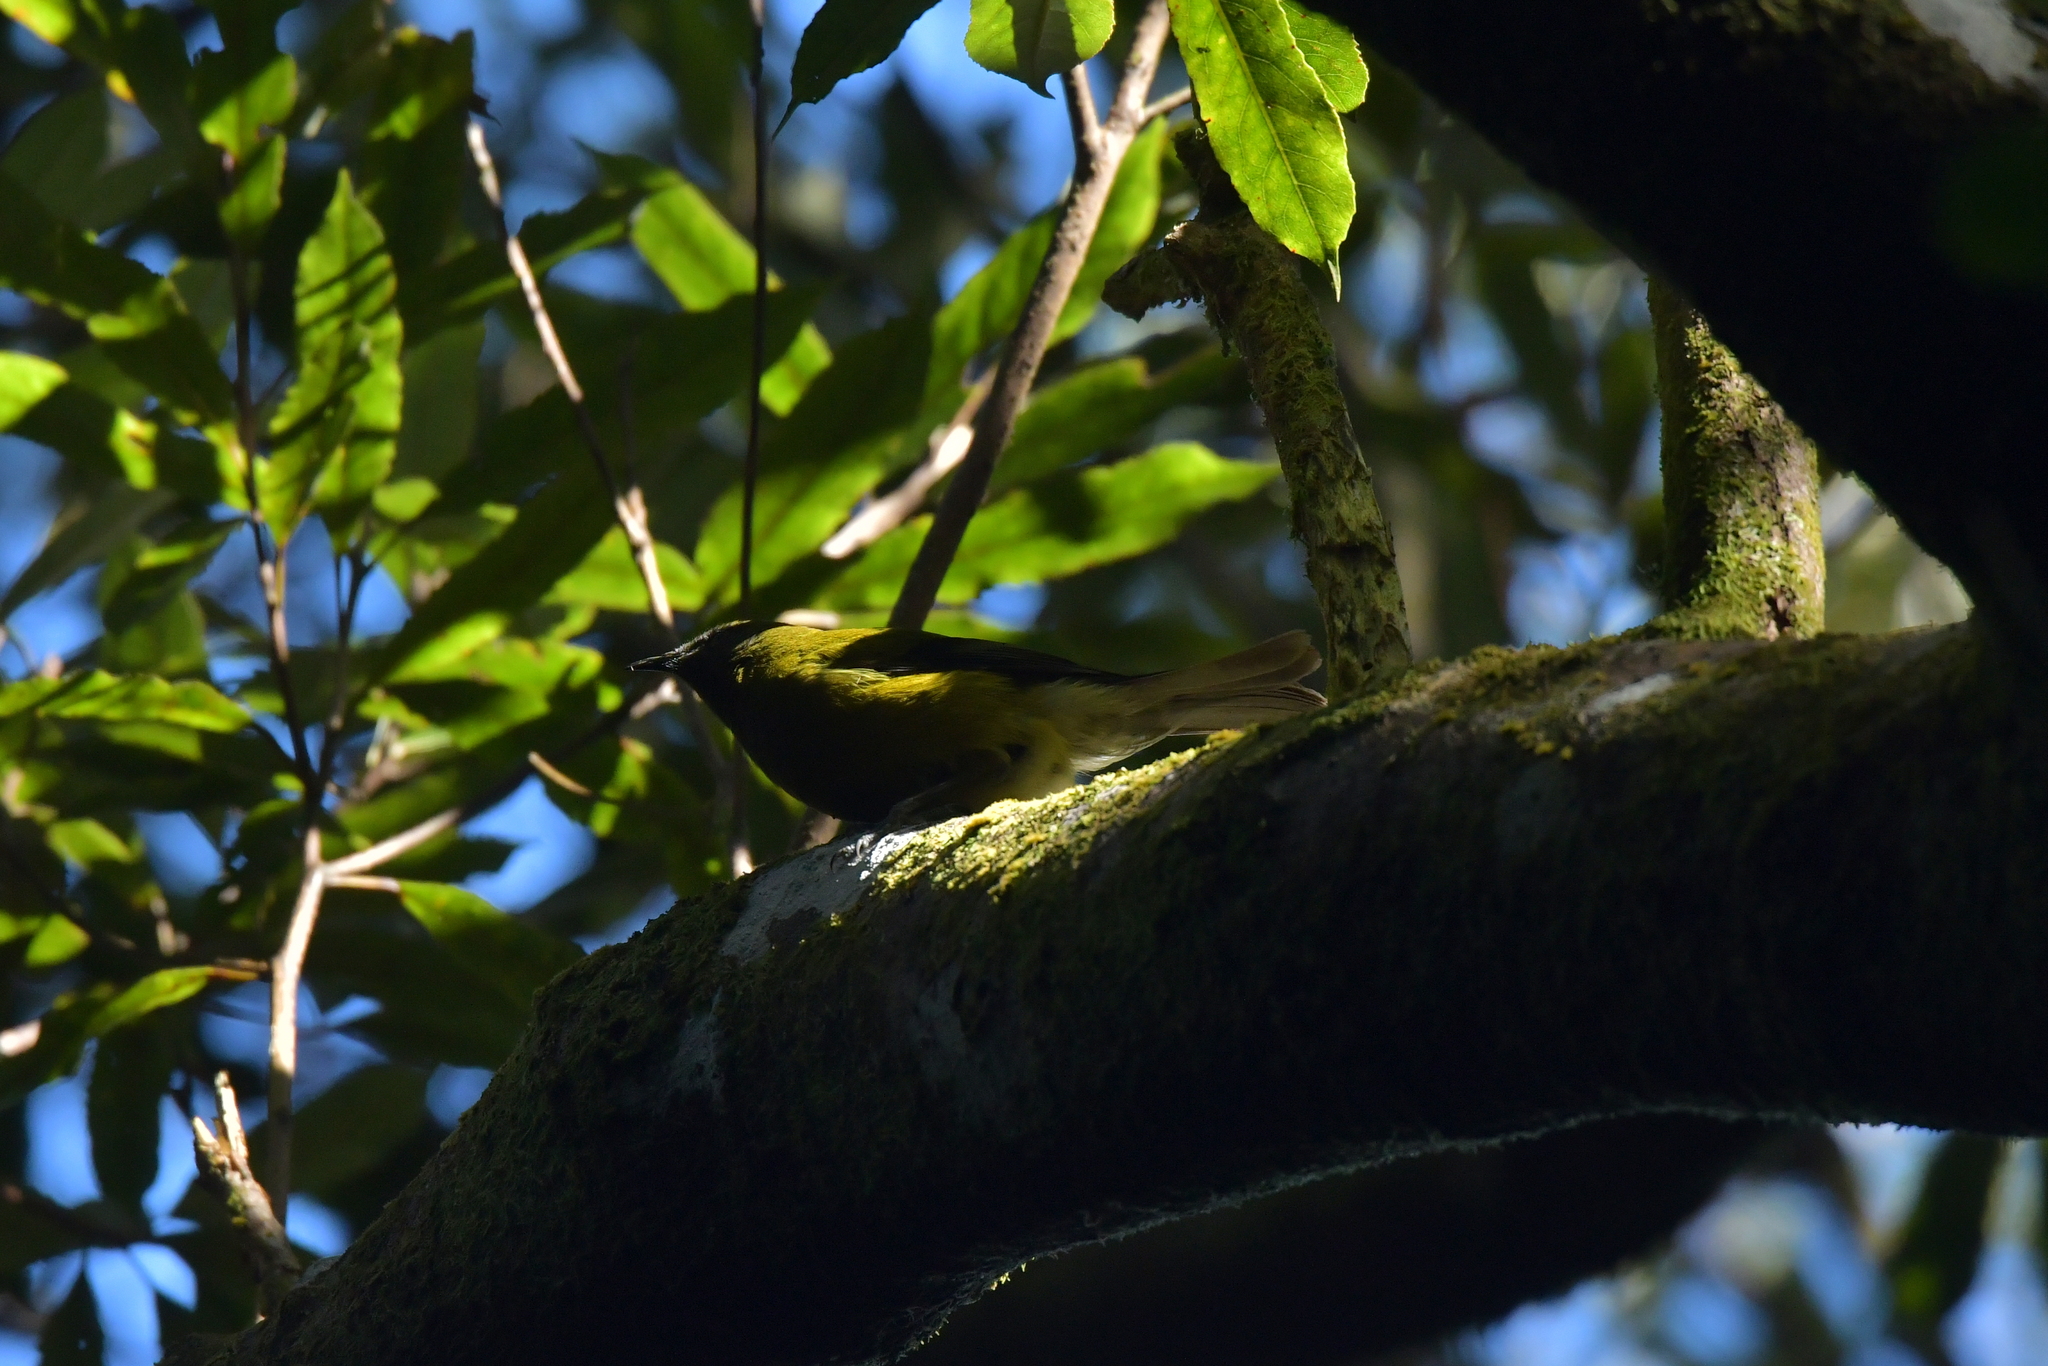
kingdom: Animalia
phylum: Chordata
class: Aves
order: Passeriformes
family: Meliphagidae
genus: Anthornis
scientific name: Anthornis melanura
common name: New zealand bellbird
